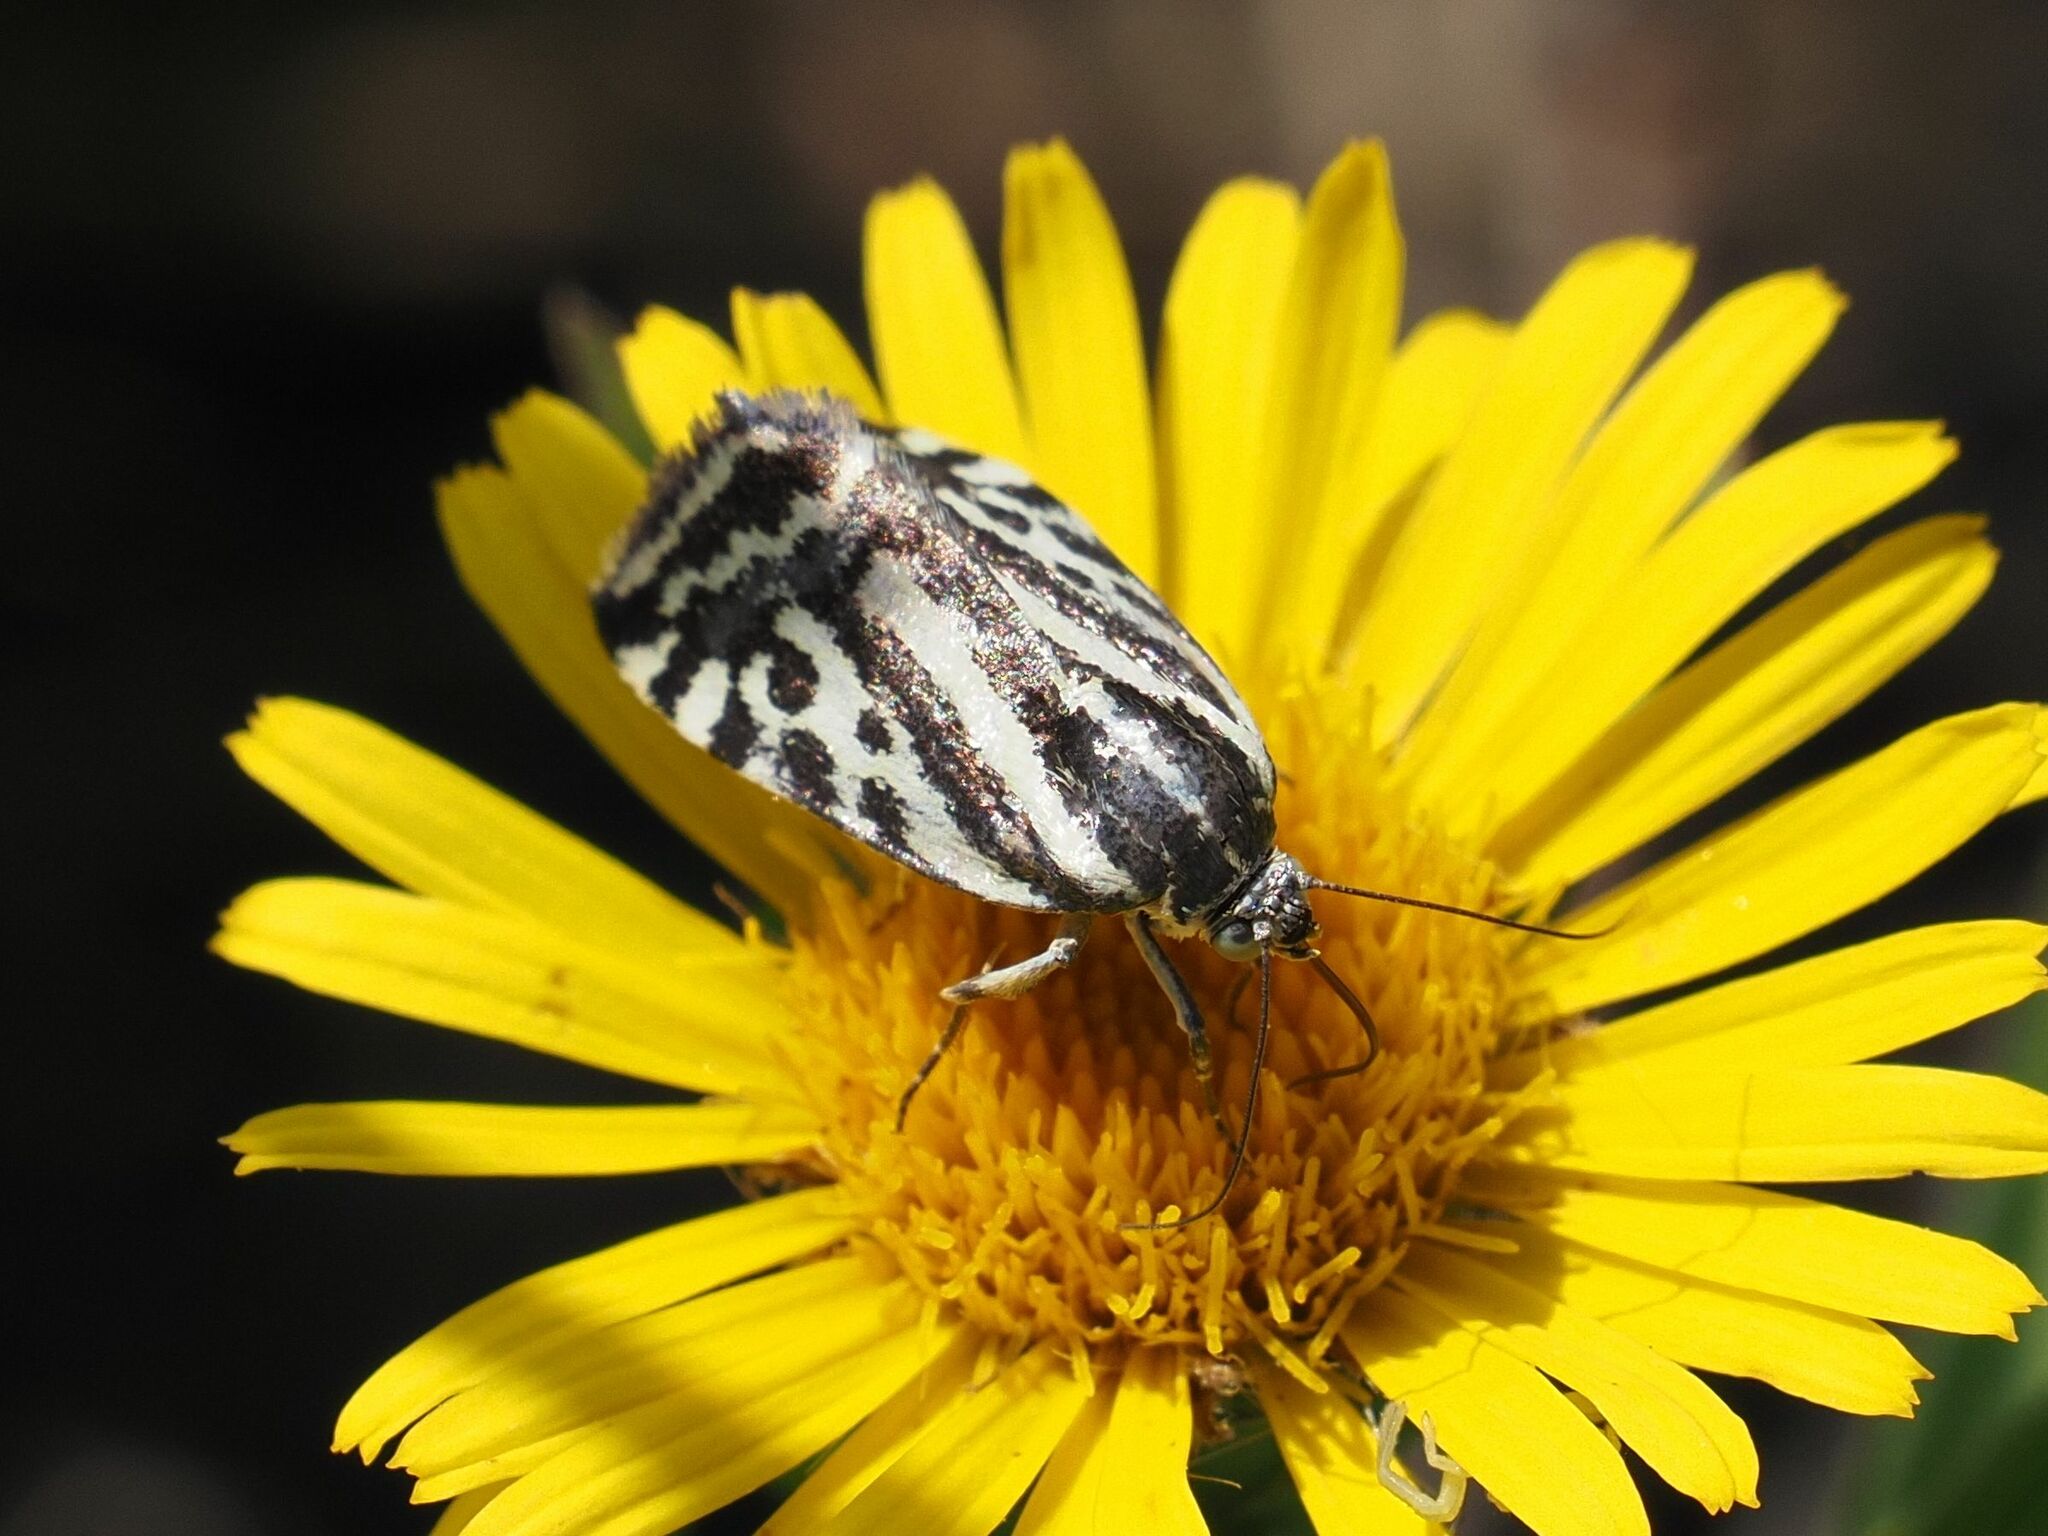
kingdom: Animalia
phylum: Arthropoda
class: Insecta
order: Lepidoptera
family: Noctuidae
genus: Acontia
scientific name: Acontia trabealis
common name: Spotted sulphur
